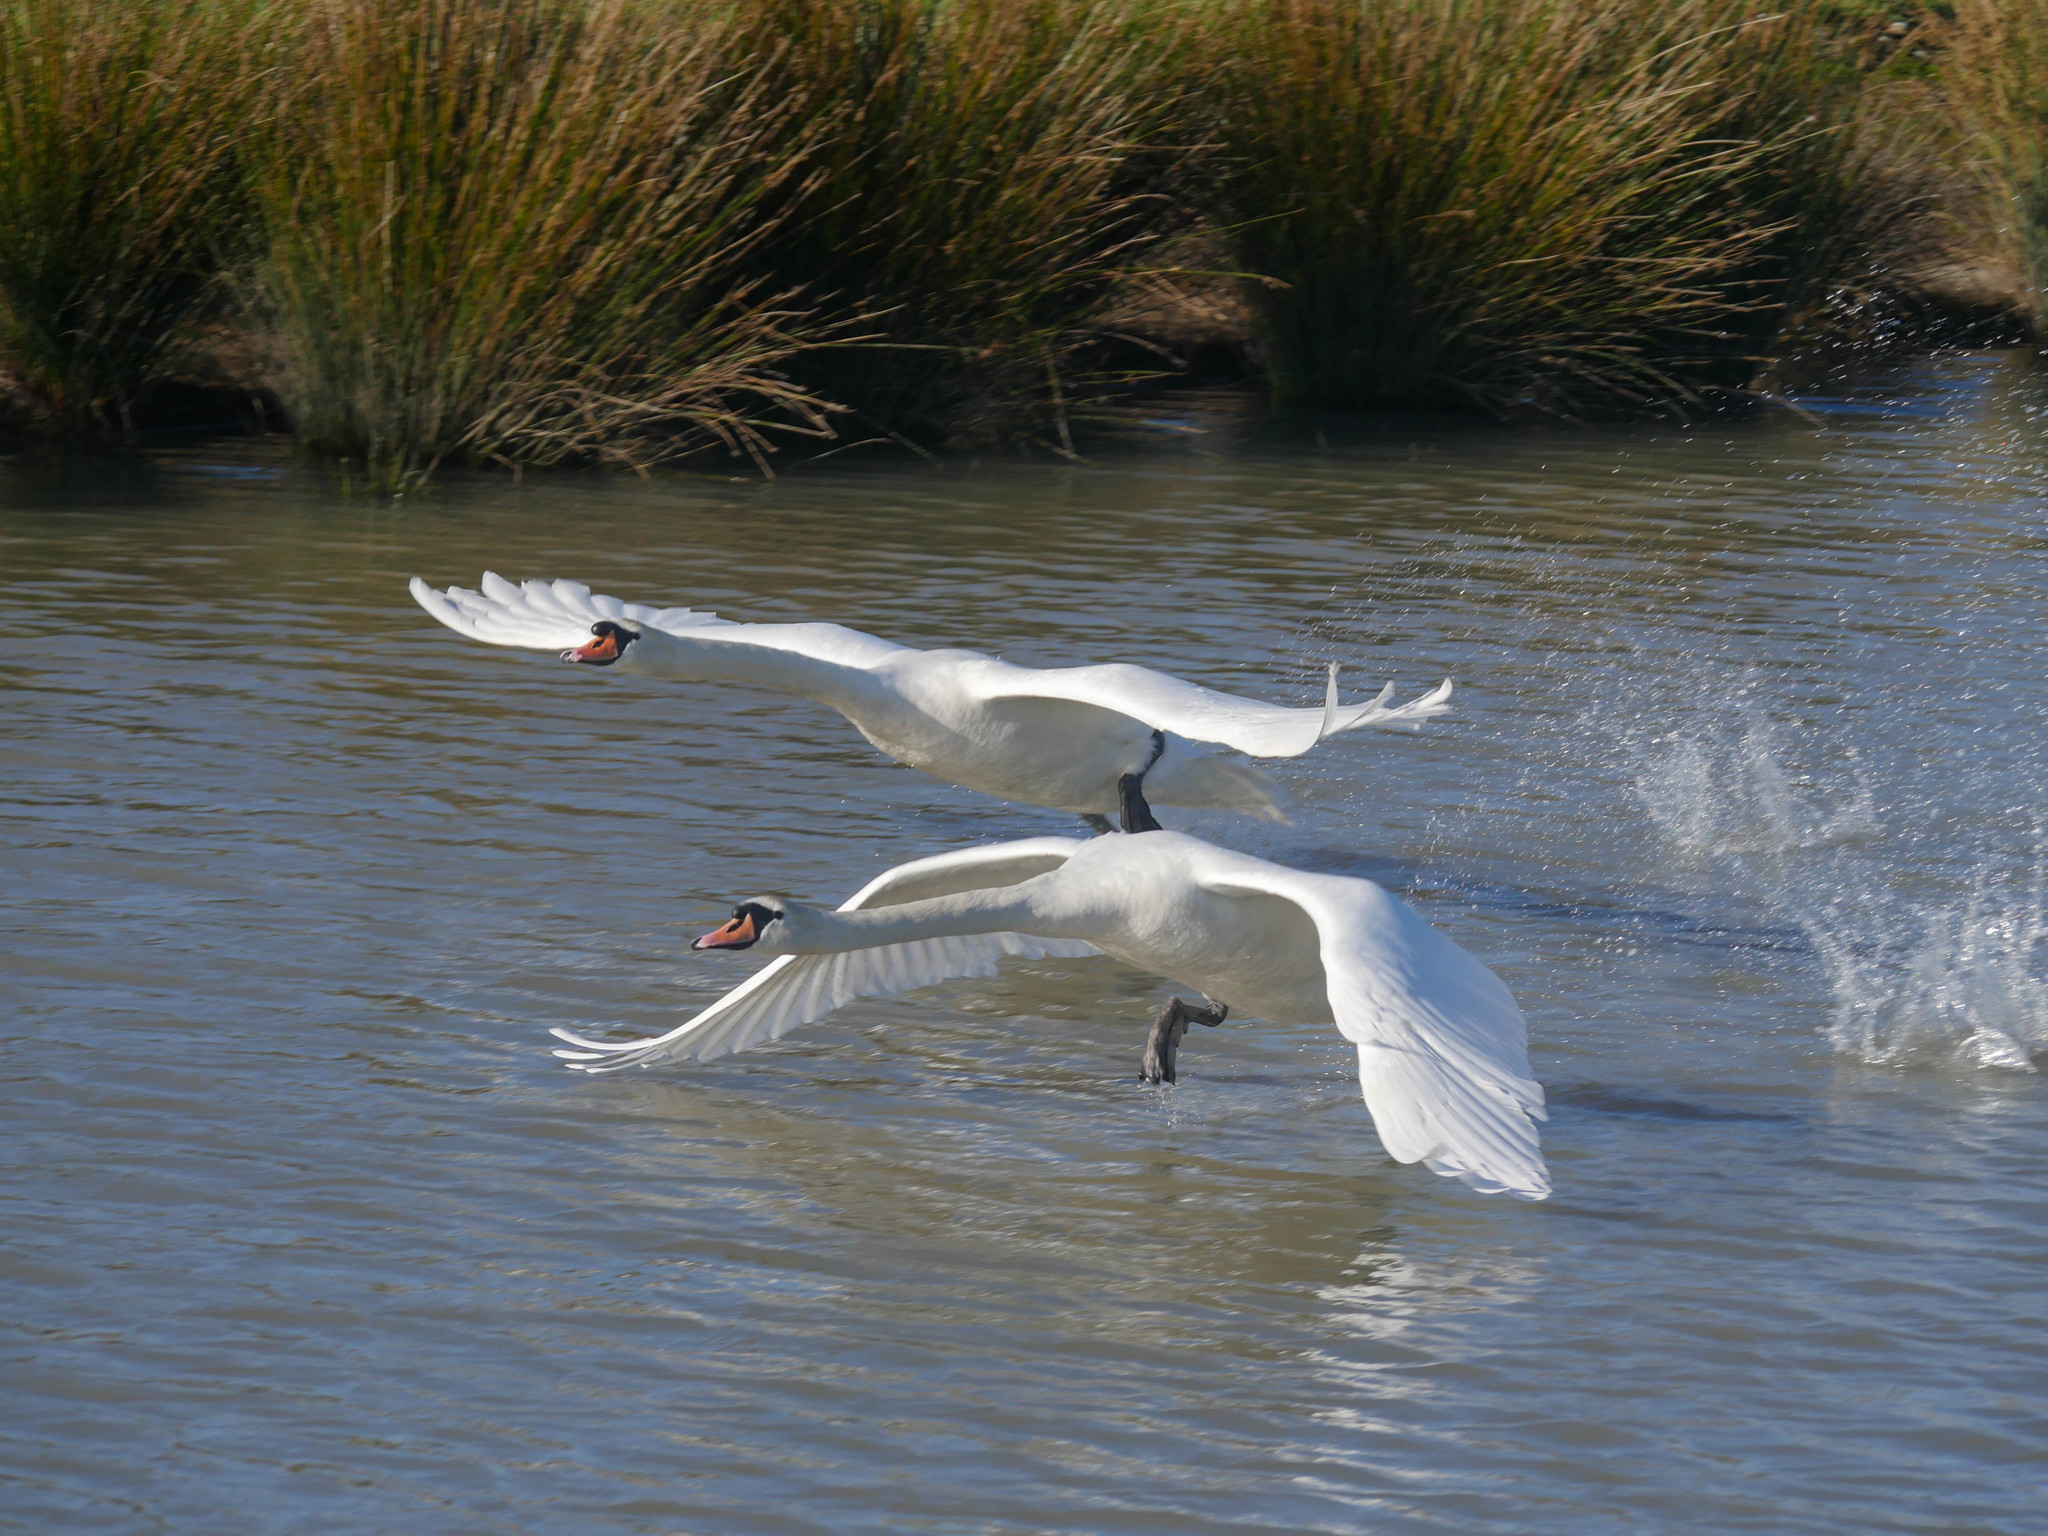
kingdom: Animalia
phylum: Chordata
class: Aves
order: Anseriformes
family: Anatidae
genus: Cygnus
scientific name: Cygnus olor
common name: Mute swan
